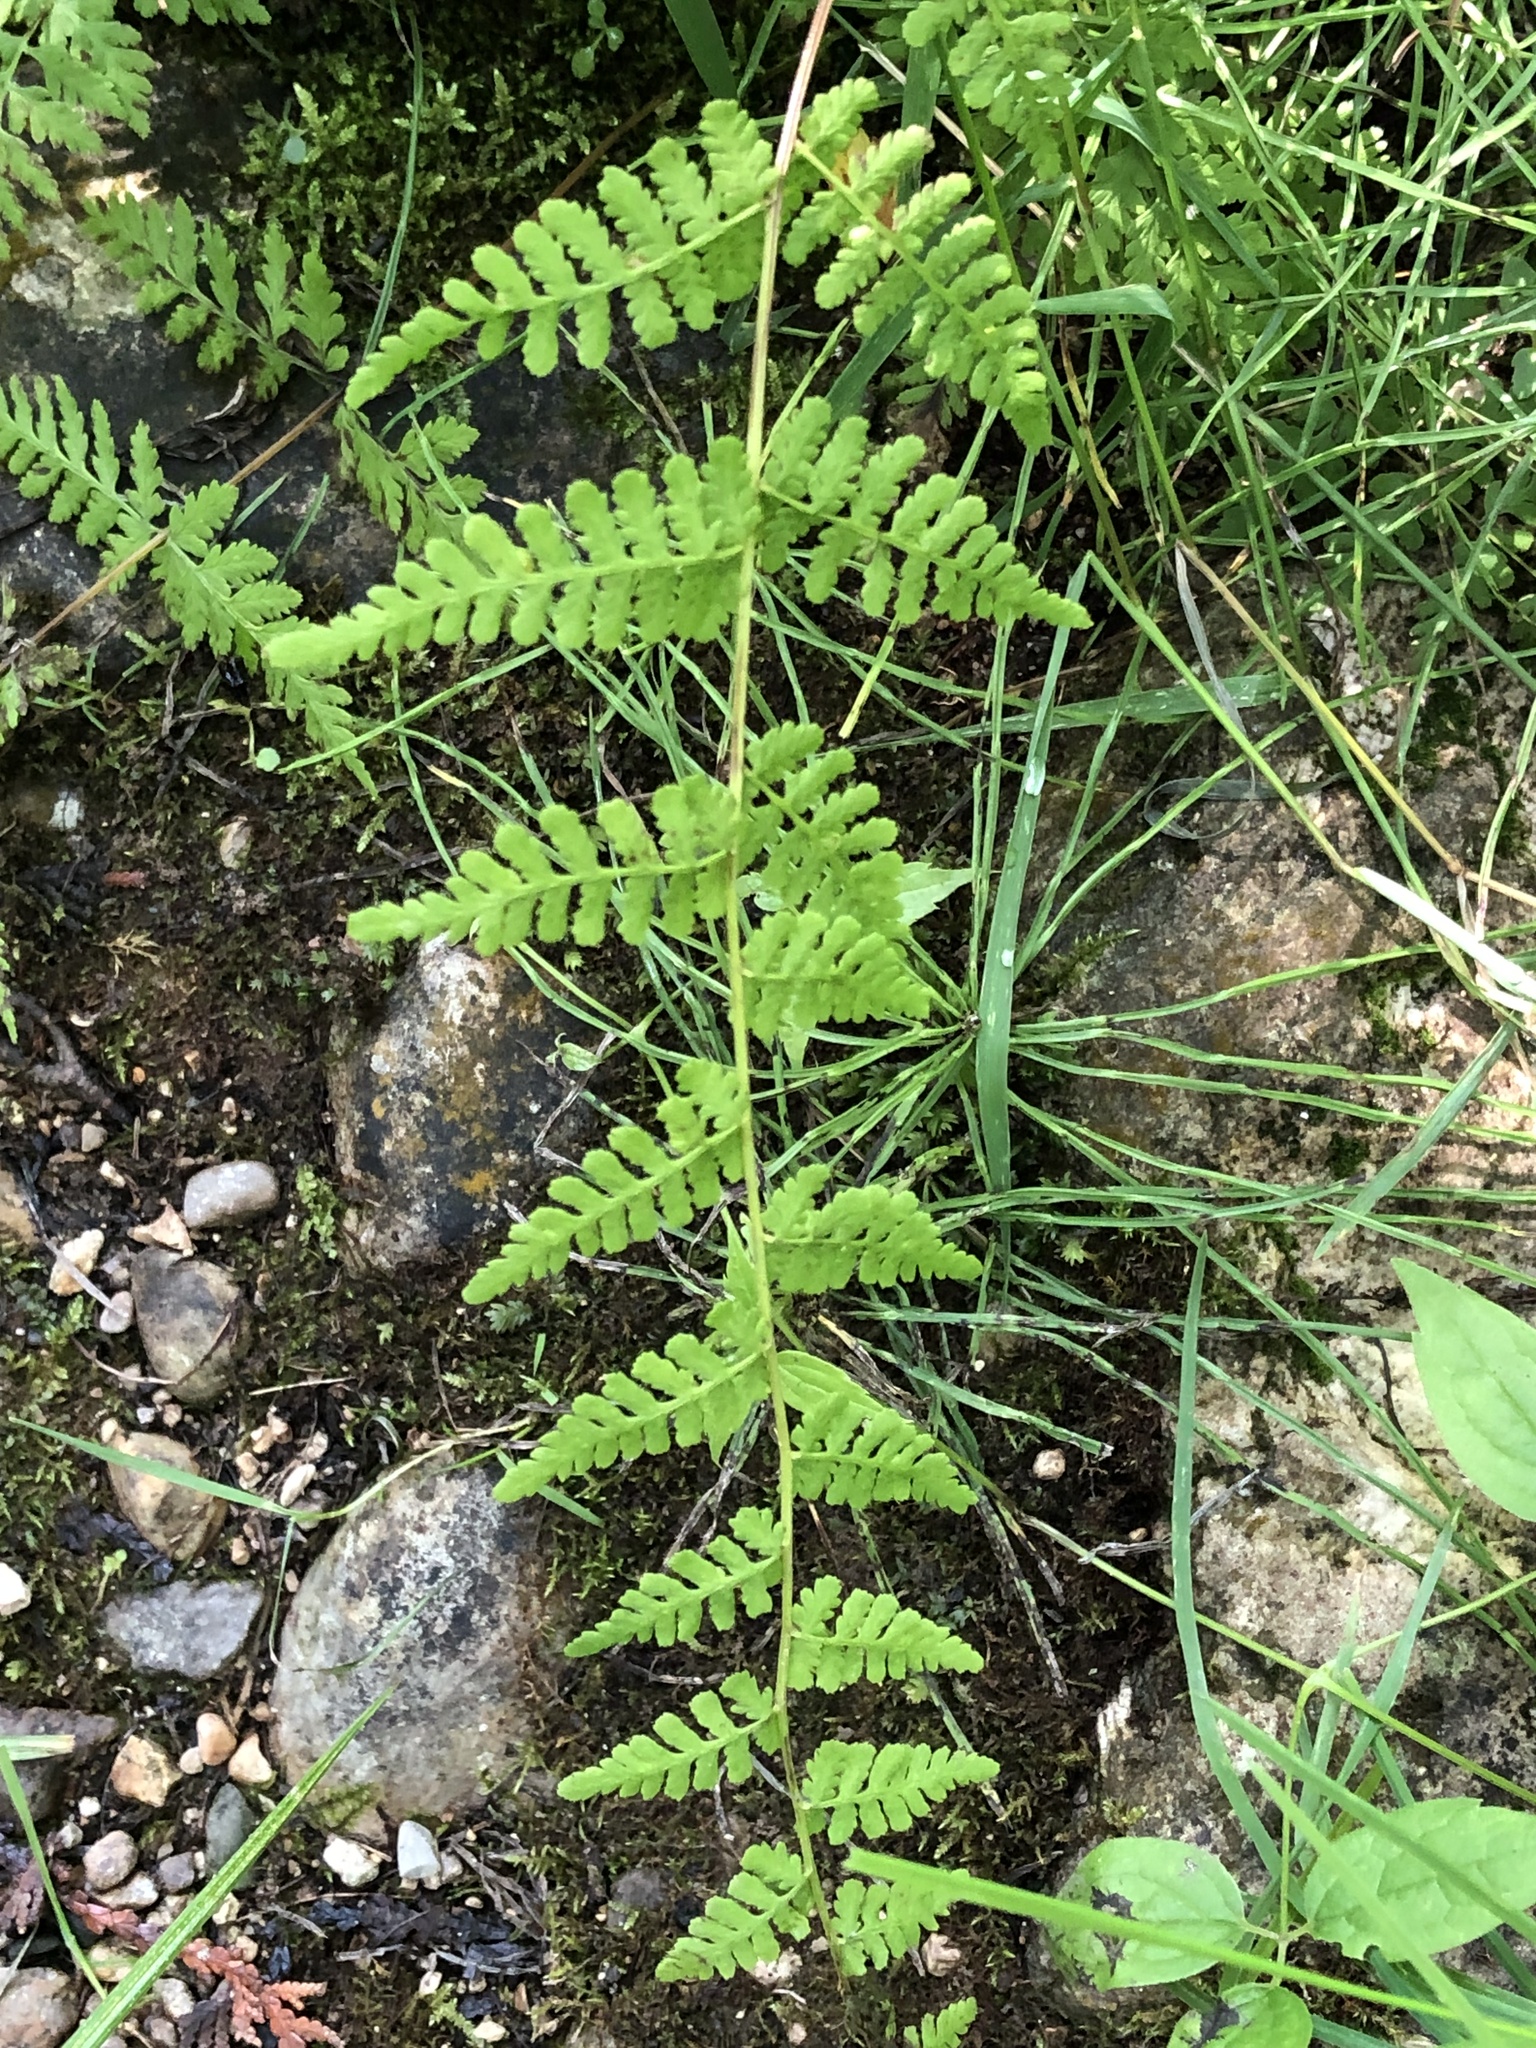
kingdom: Plantae
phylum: Tracheophyta
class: Polypodiopsida
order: Polypodiales
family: Cystopteridaceae
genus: Cystopteris
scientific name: Cystopteris bulbifera
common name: Bulblet bladder fern
